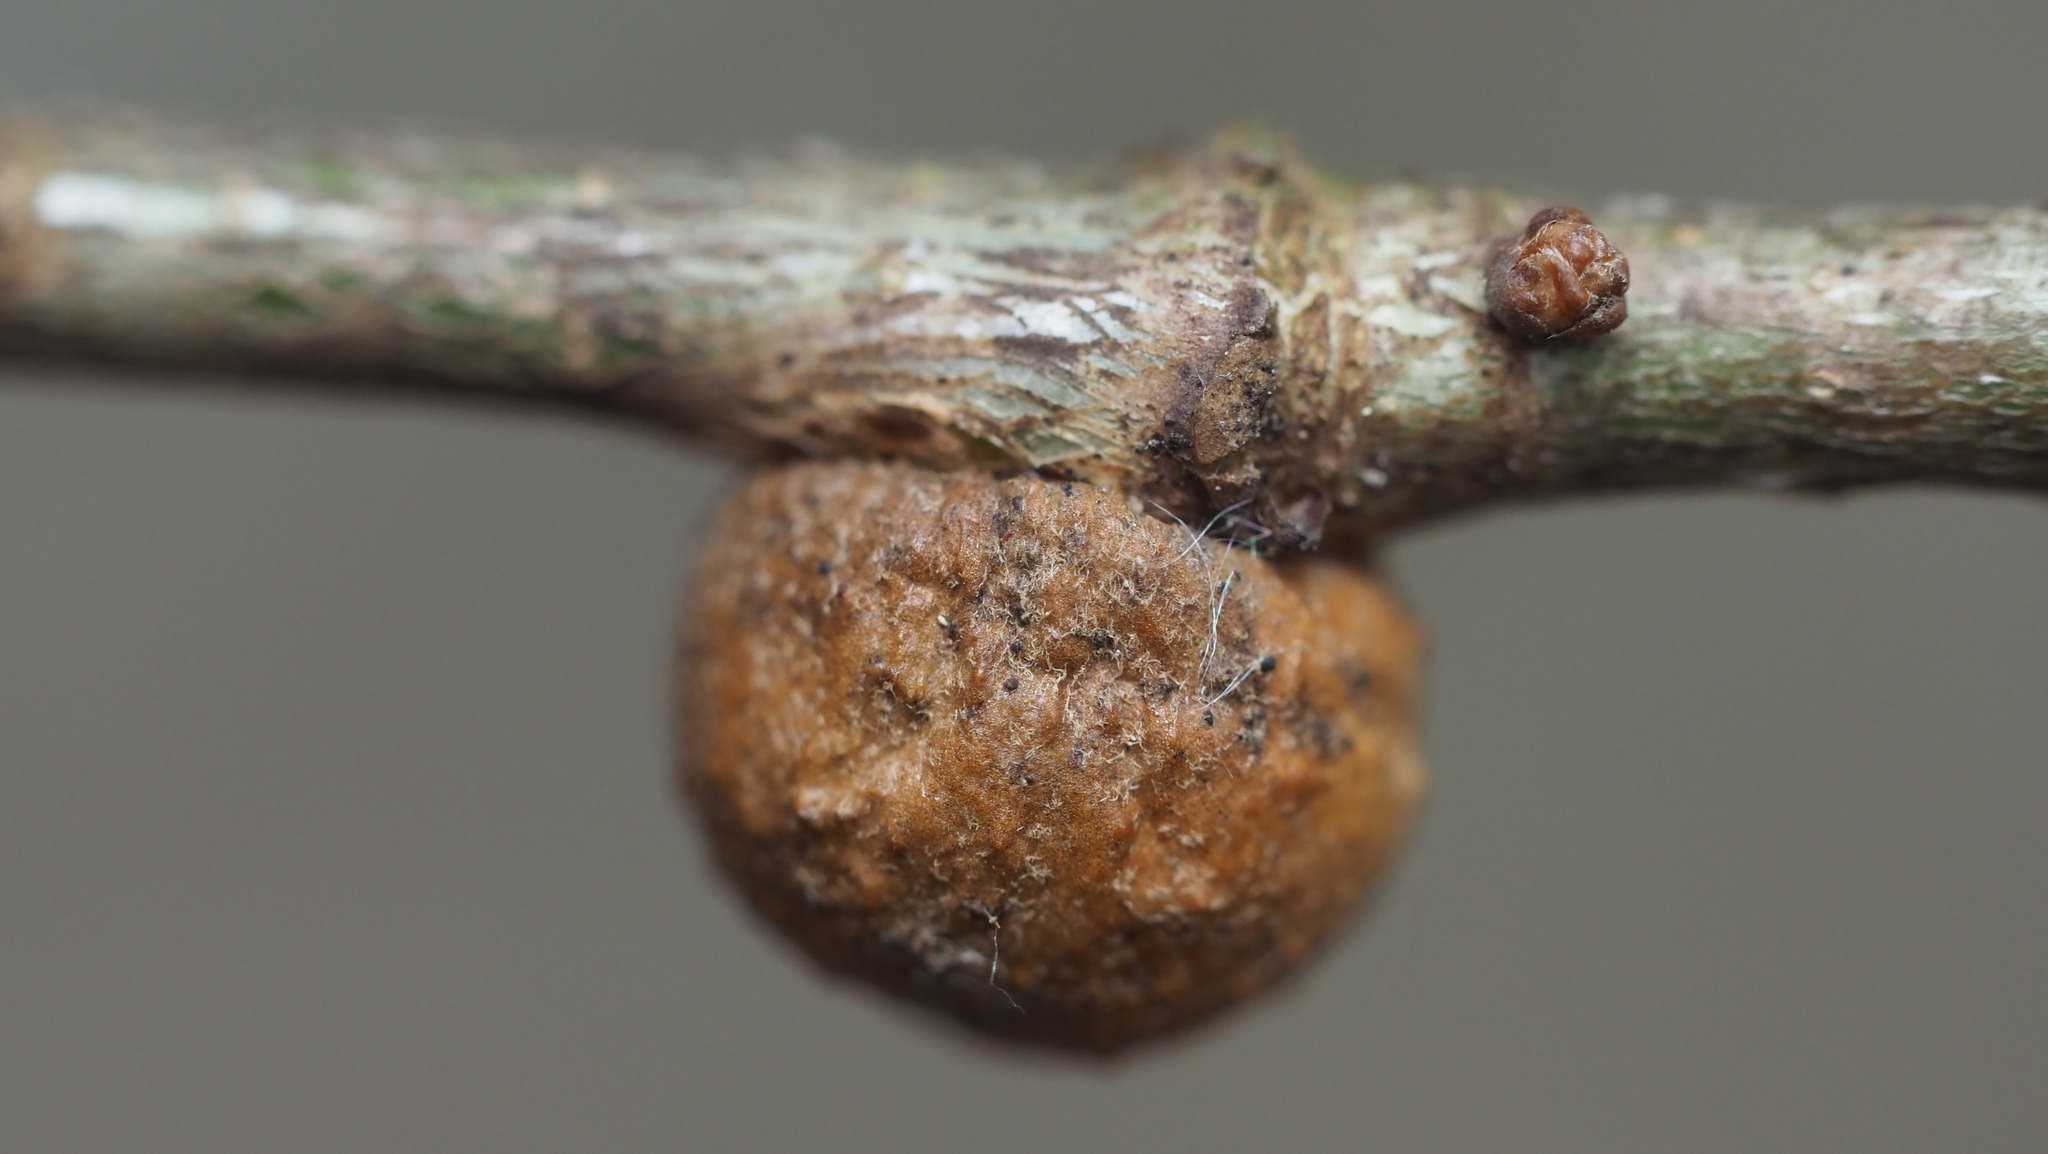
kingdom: Animalia
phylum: Arthropoda
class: Insecta
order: Hymenoptera
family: Cynipidae
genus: Disholcaspis
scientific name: Disholcaspis quercusglobulus
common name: Round bullet gall wasp
